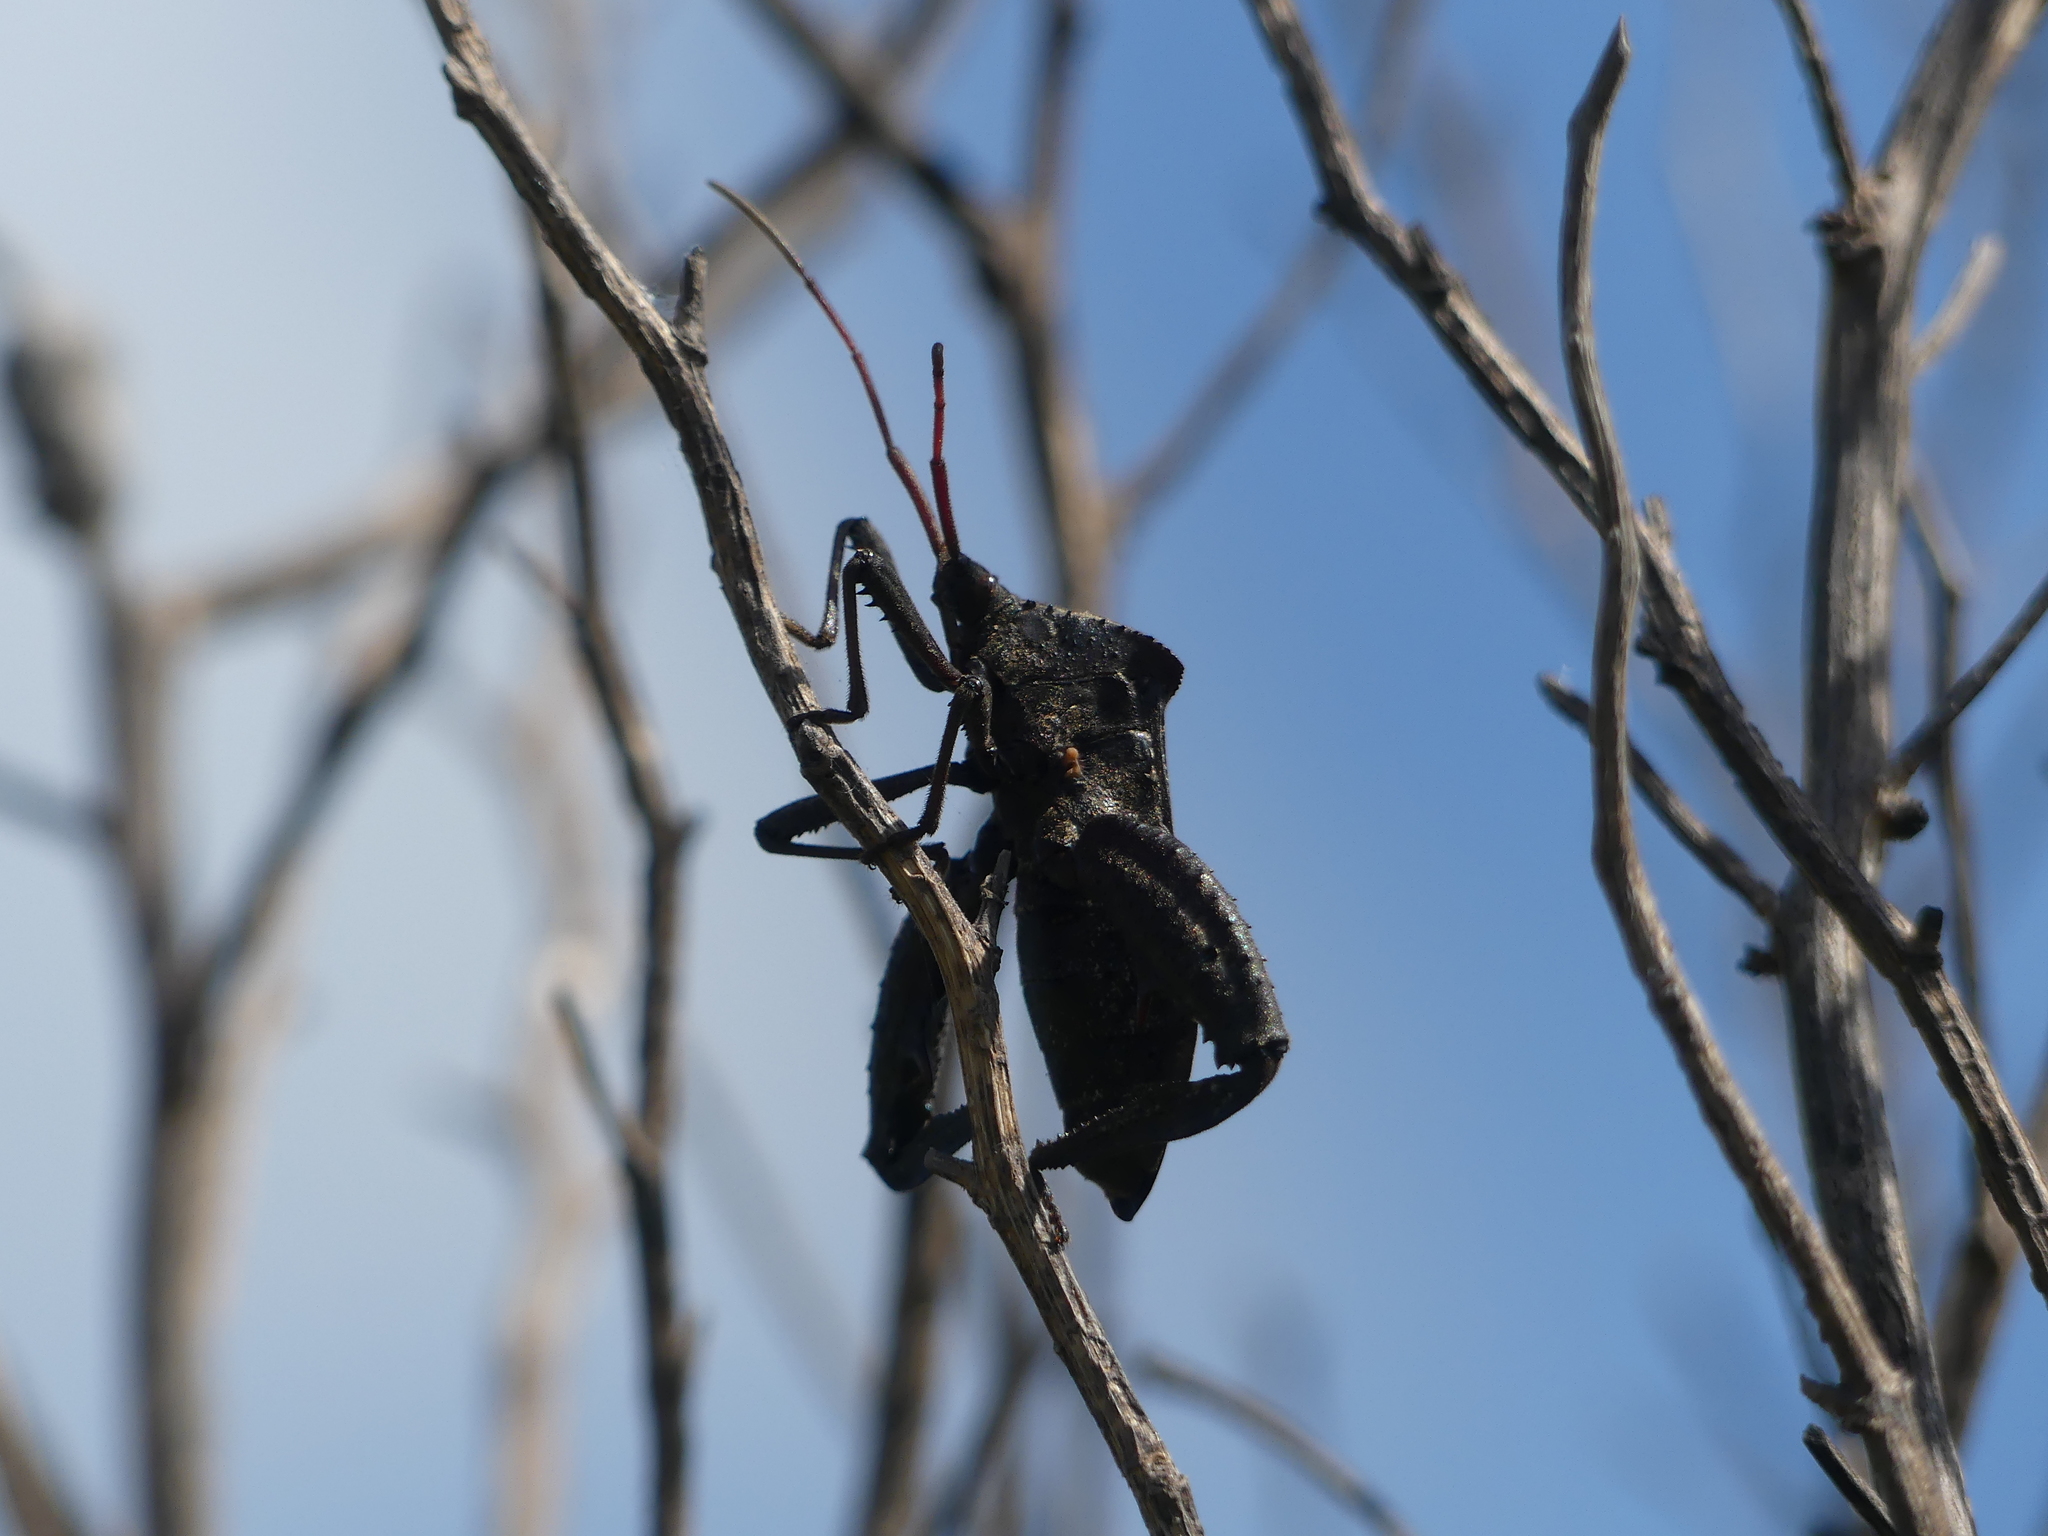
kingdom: Animalia
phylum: Arthropoda
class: Insecta
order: Hemiptera
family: Coreidae
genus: Acanthocephala
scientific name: Acanthocephala femorata
